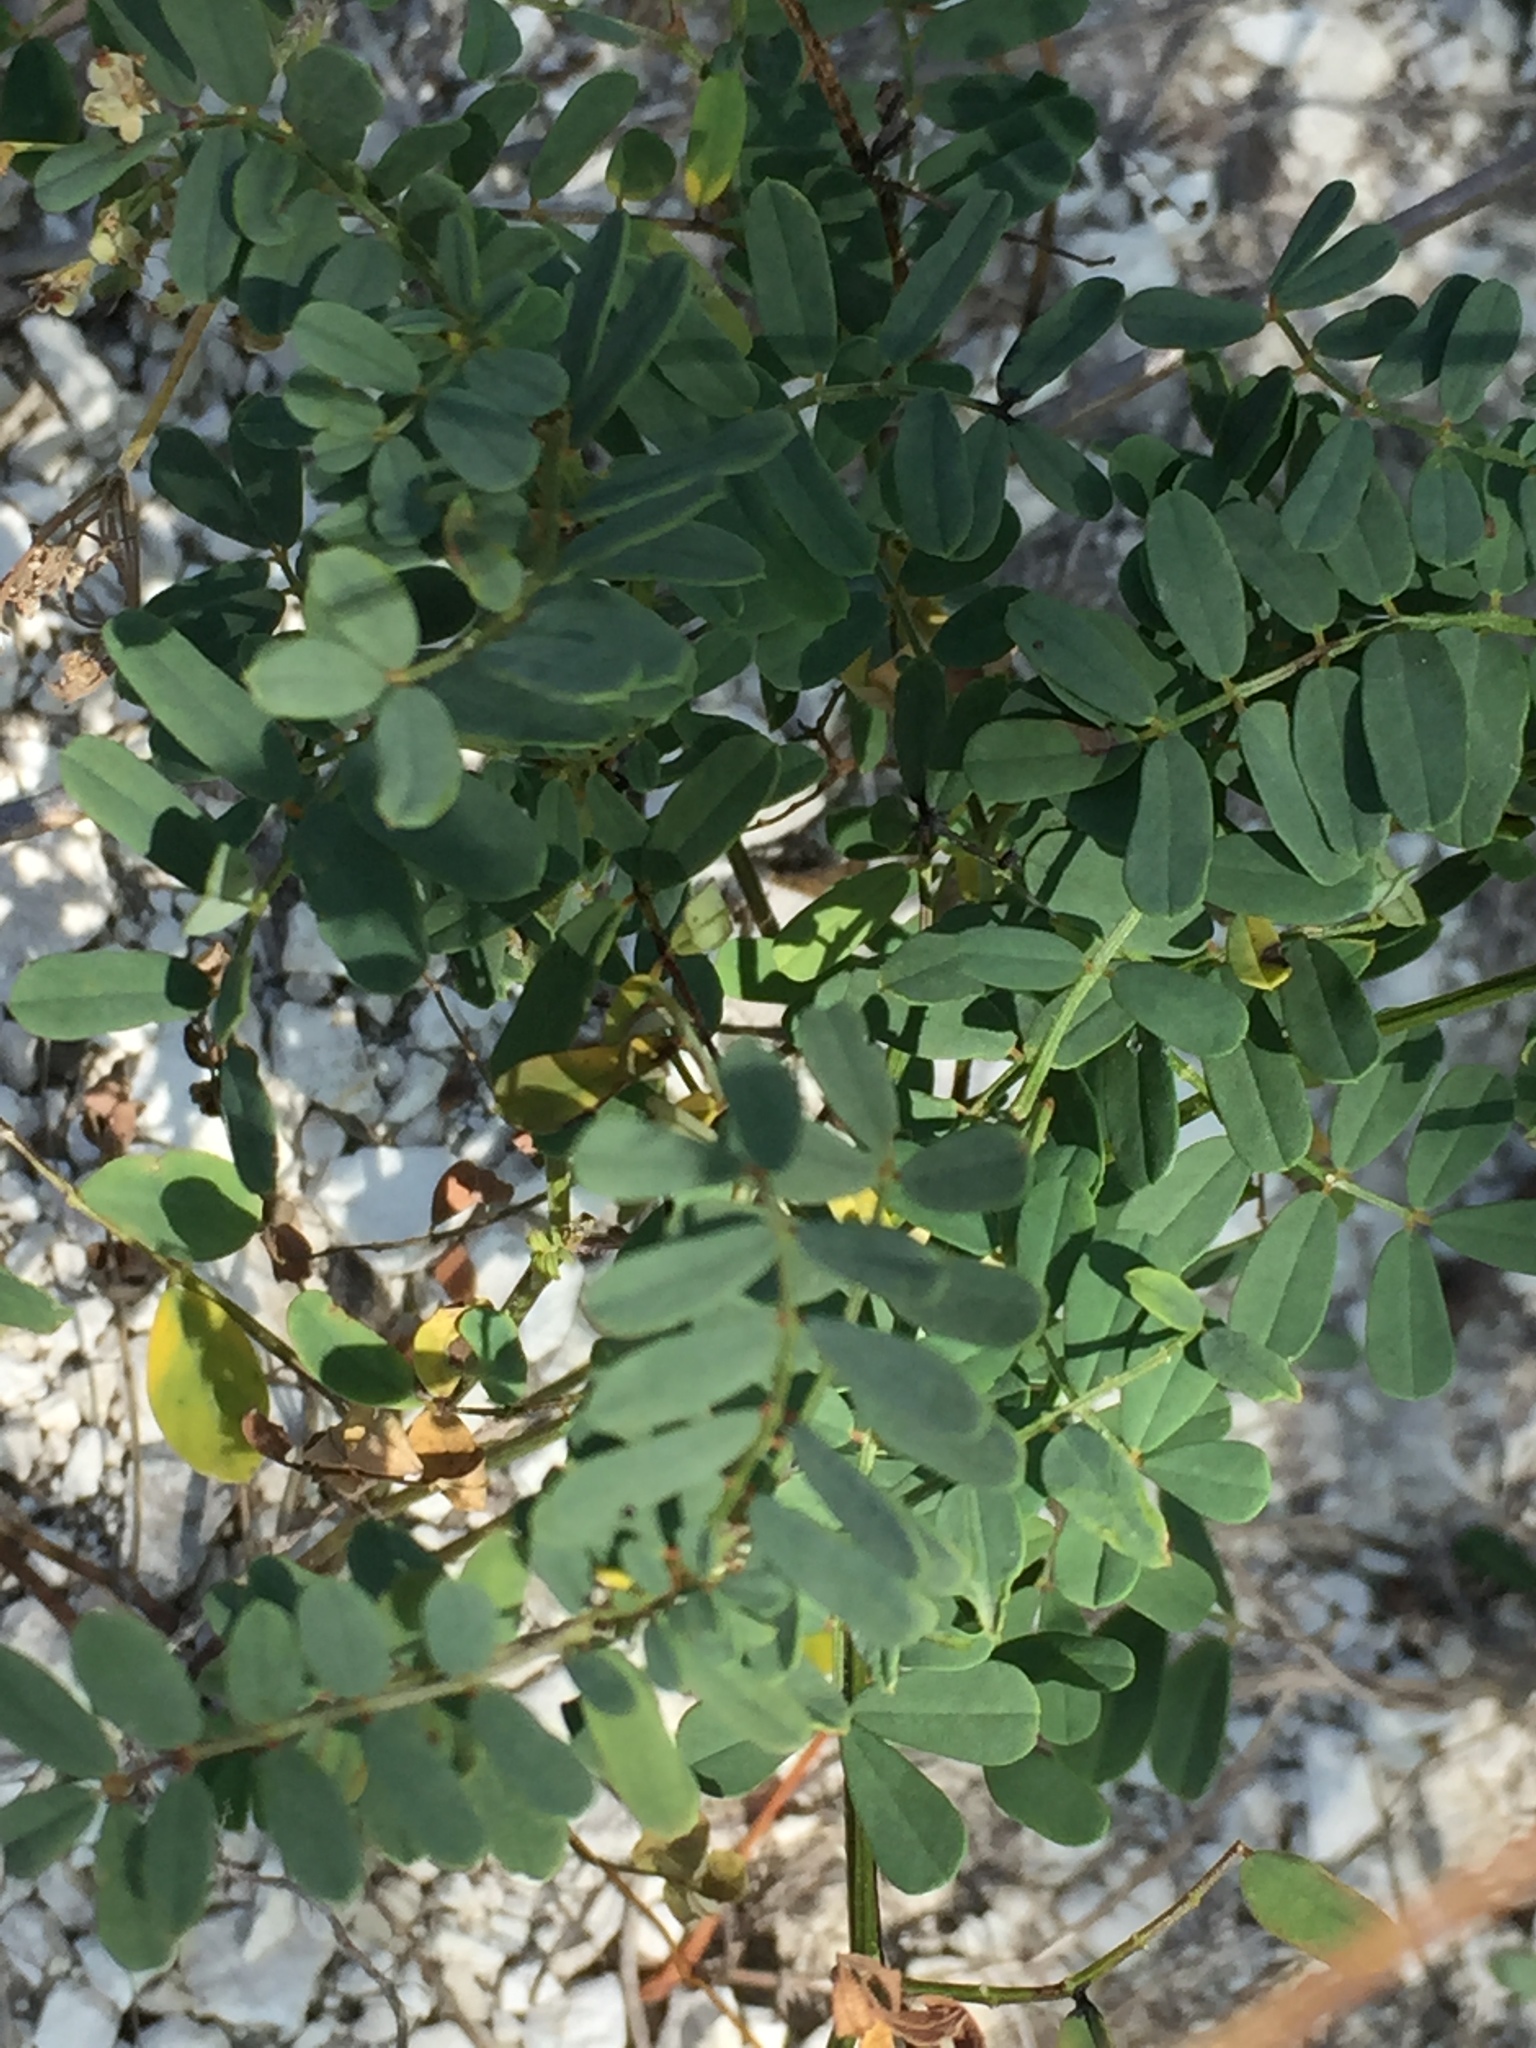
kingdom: Plantae
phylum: Tracheophyta
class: Magnoliopsida
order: Fabales
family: Fabaceae
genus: Coronilla
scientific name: Coronilla varia
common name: Crownvetch
